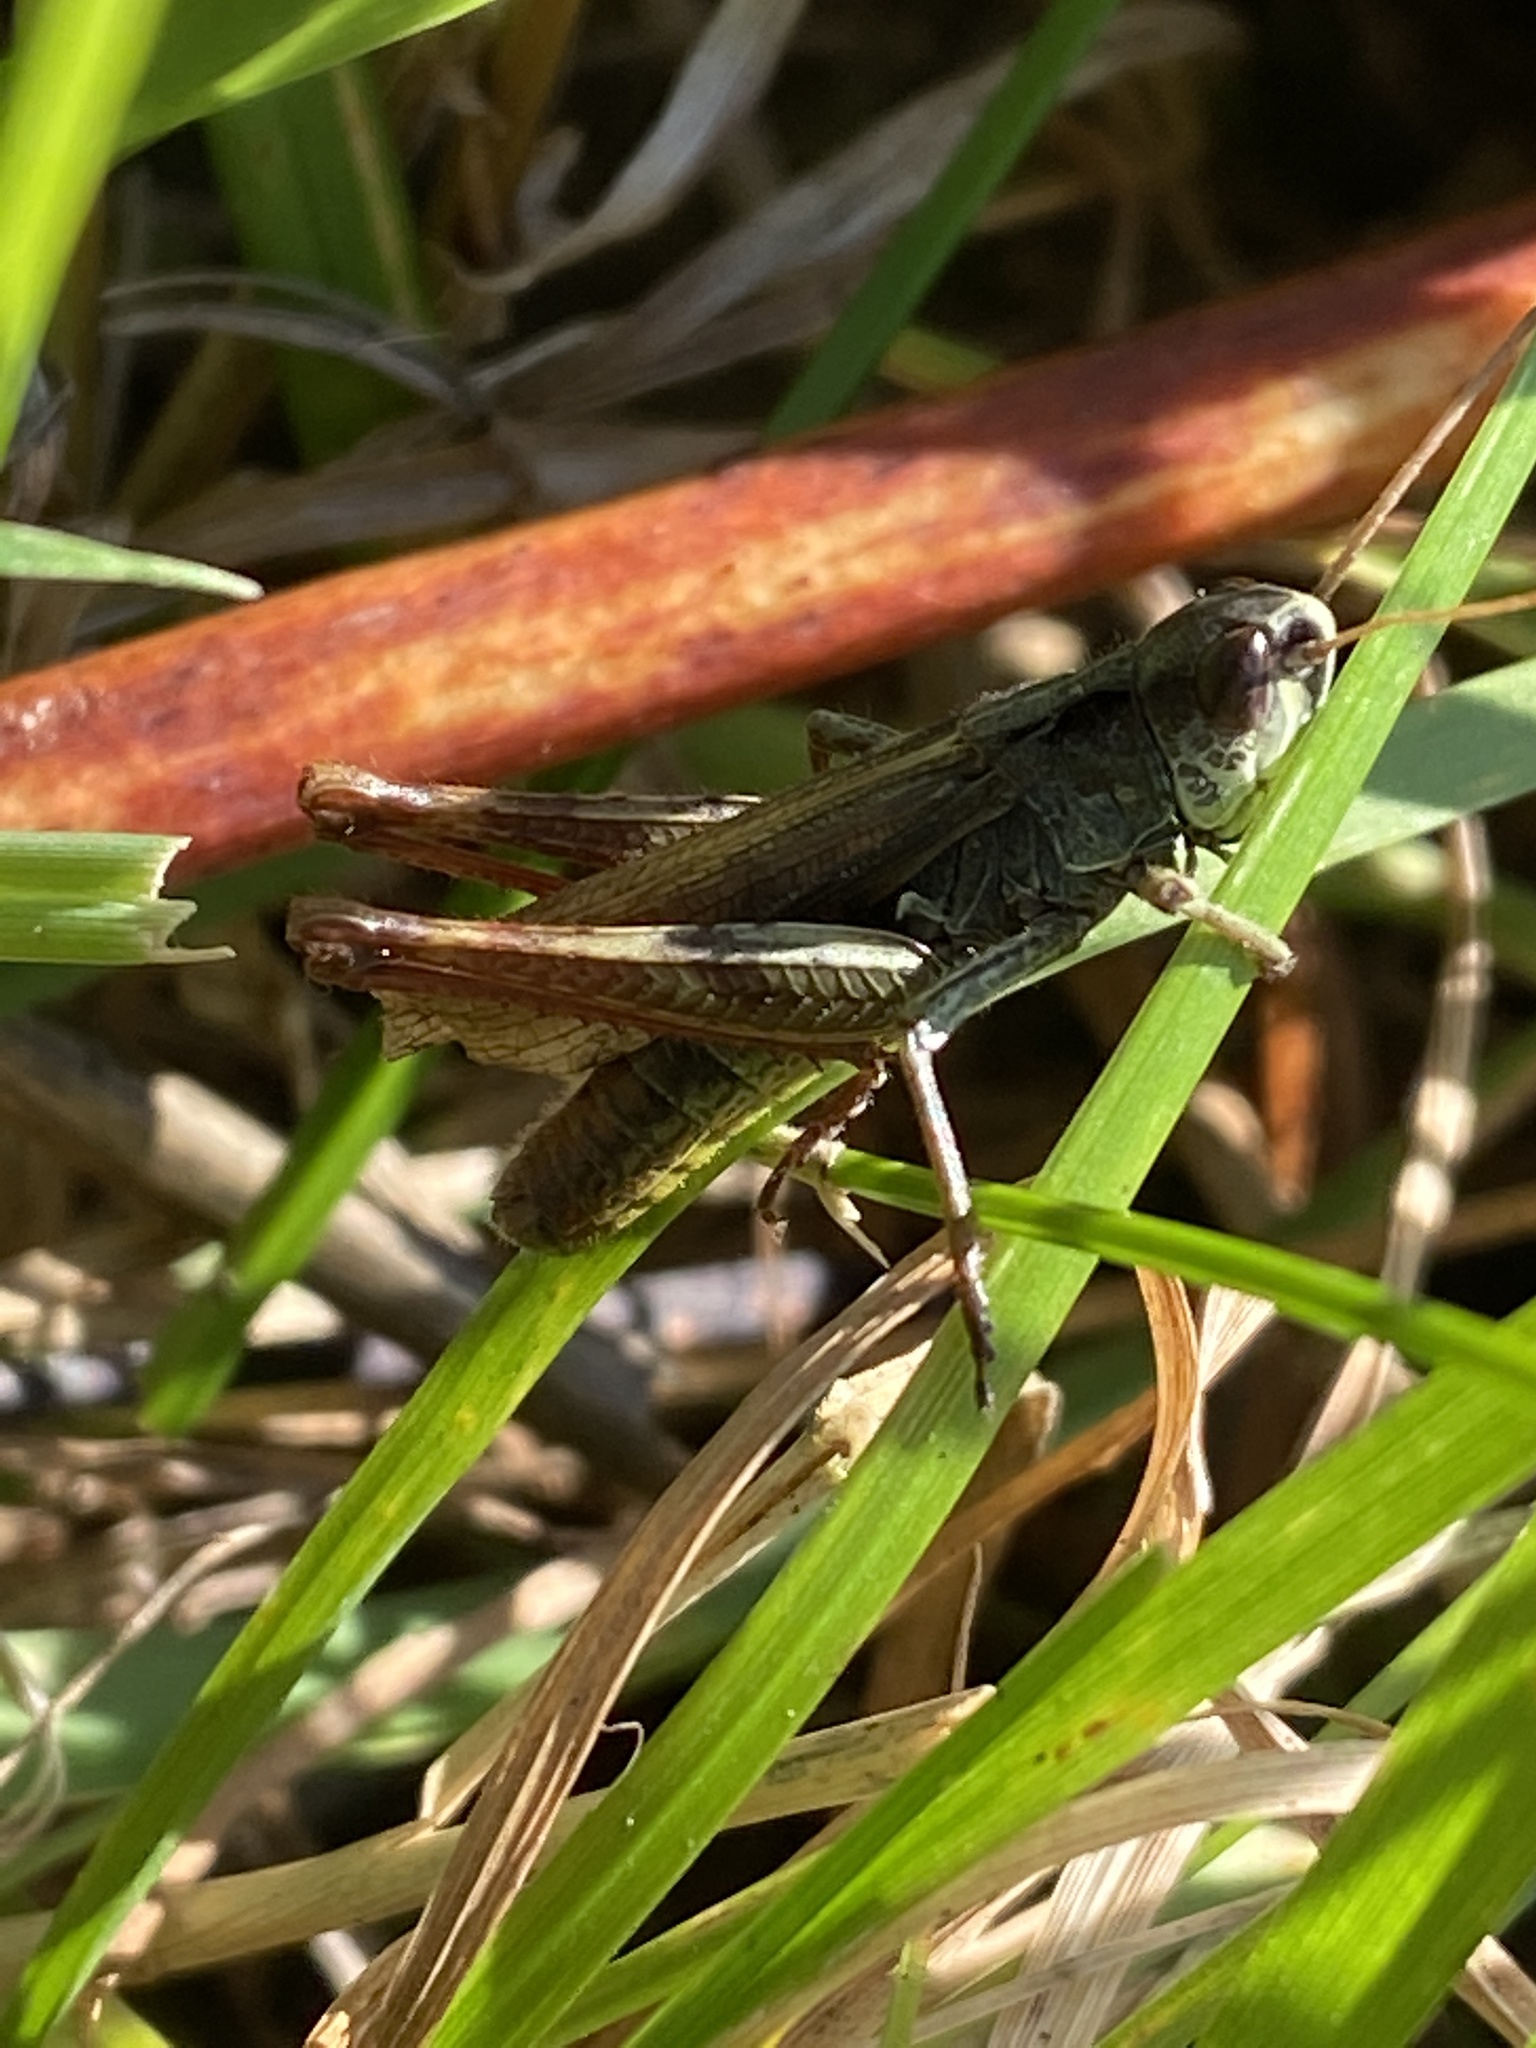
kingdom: Animalia
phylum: Arthropoda
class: Insecta
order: Orthoptera
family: Acrididae
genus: Gomphocerippus
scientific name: Gomphocerippus rufus
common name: Rufous grasshopper
